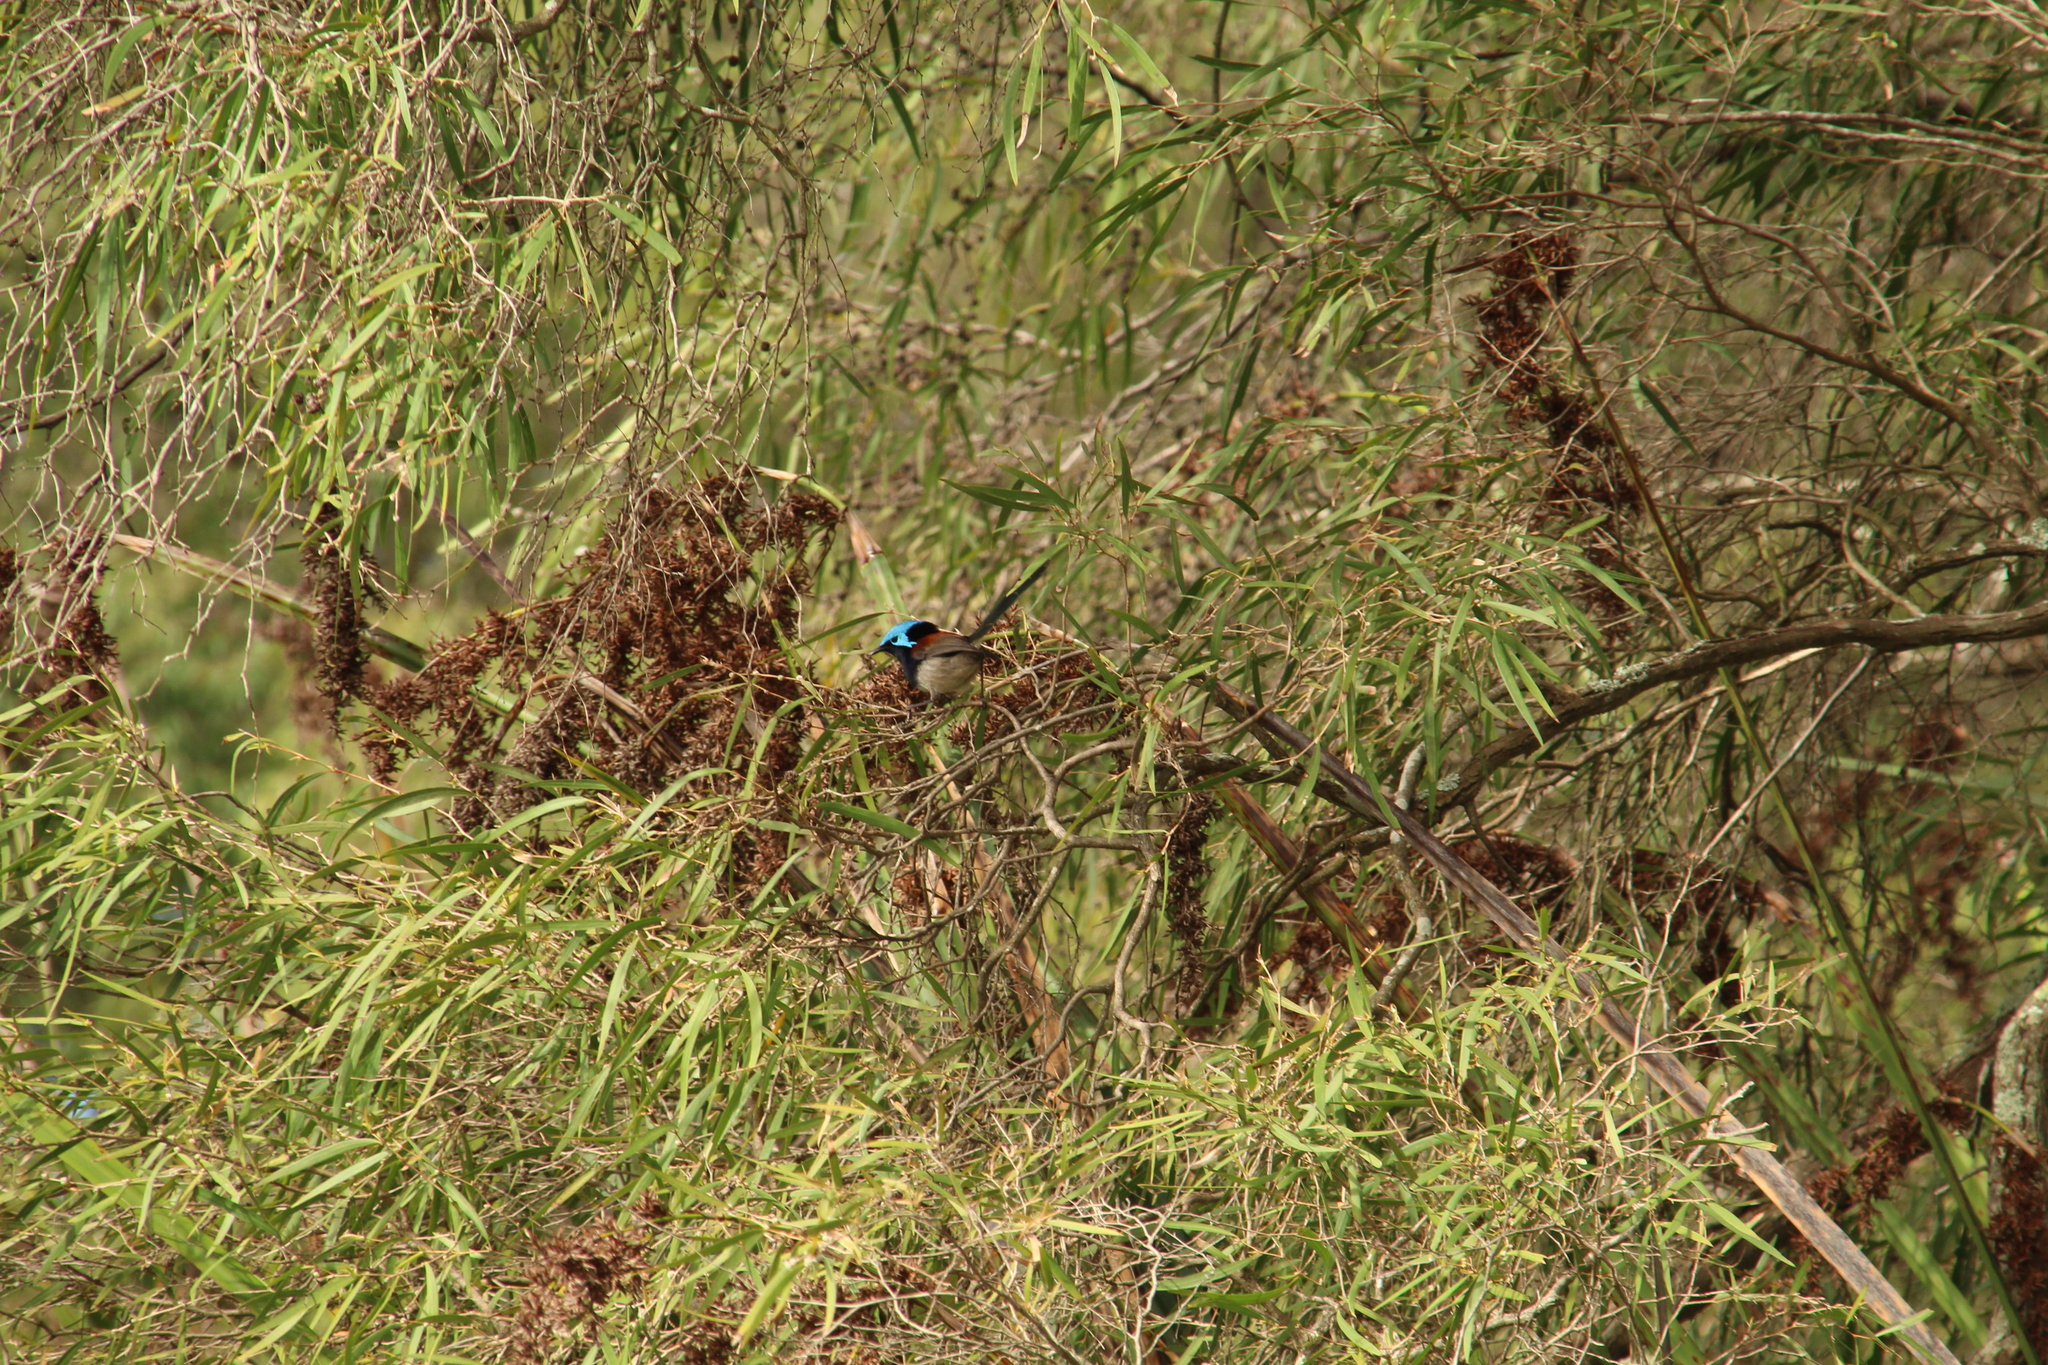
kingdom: Animalia
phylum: Chordata
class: Aves
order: Passeriformes
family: Maluridae
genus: Malurus
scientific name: Malurus elegans
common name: Red-winged fairywren
